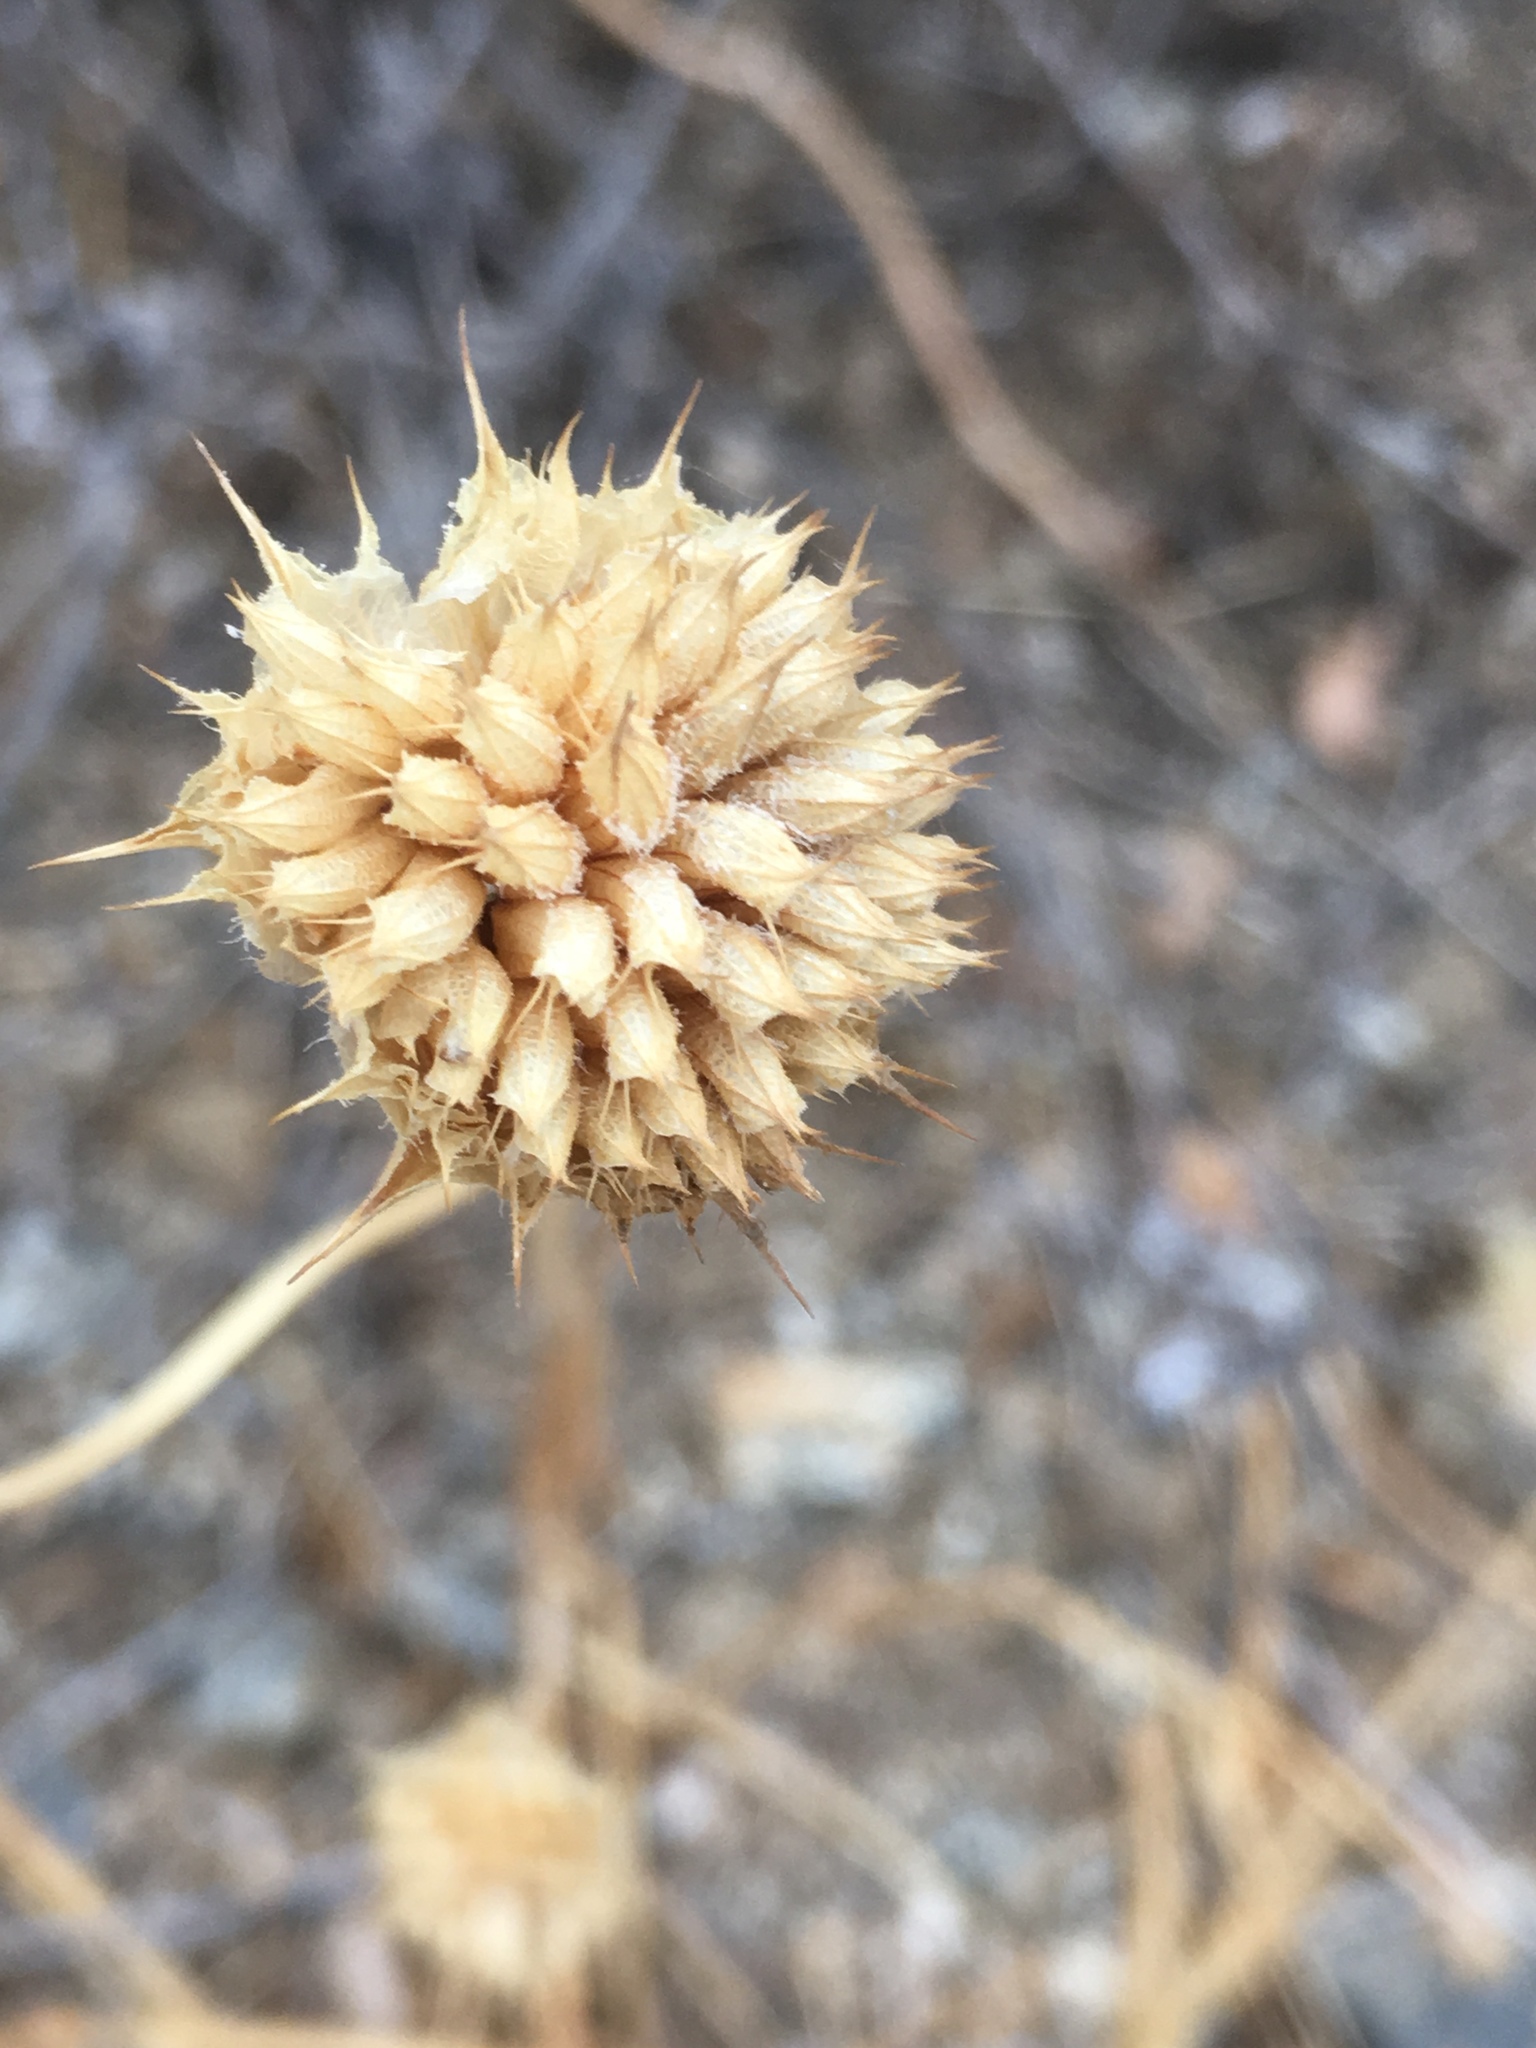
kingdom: Plantae
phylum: Tracheophyta
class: Magnoliopsida
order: Lamiales
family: Lamiaceae
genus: Salvia
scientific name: Salvia columbariae
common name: Chia
